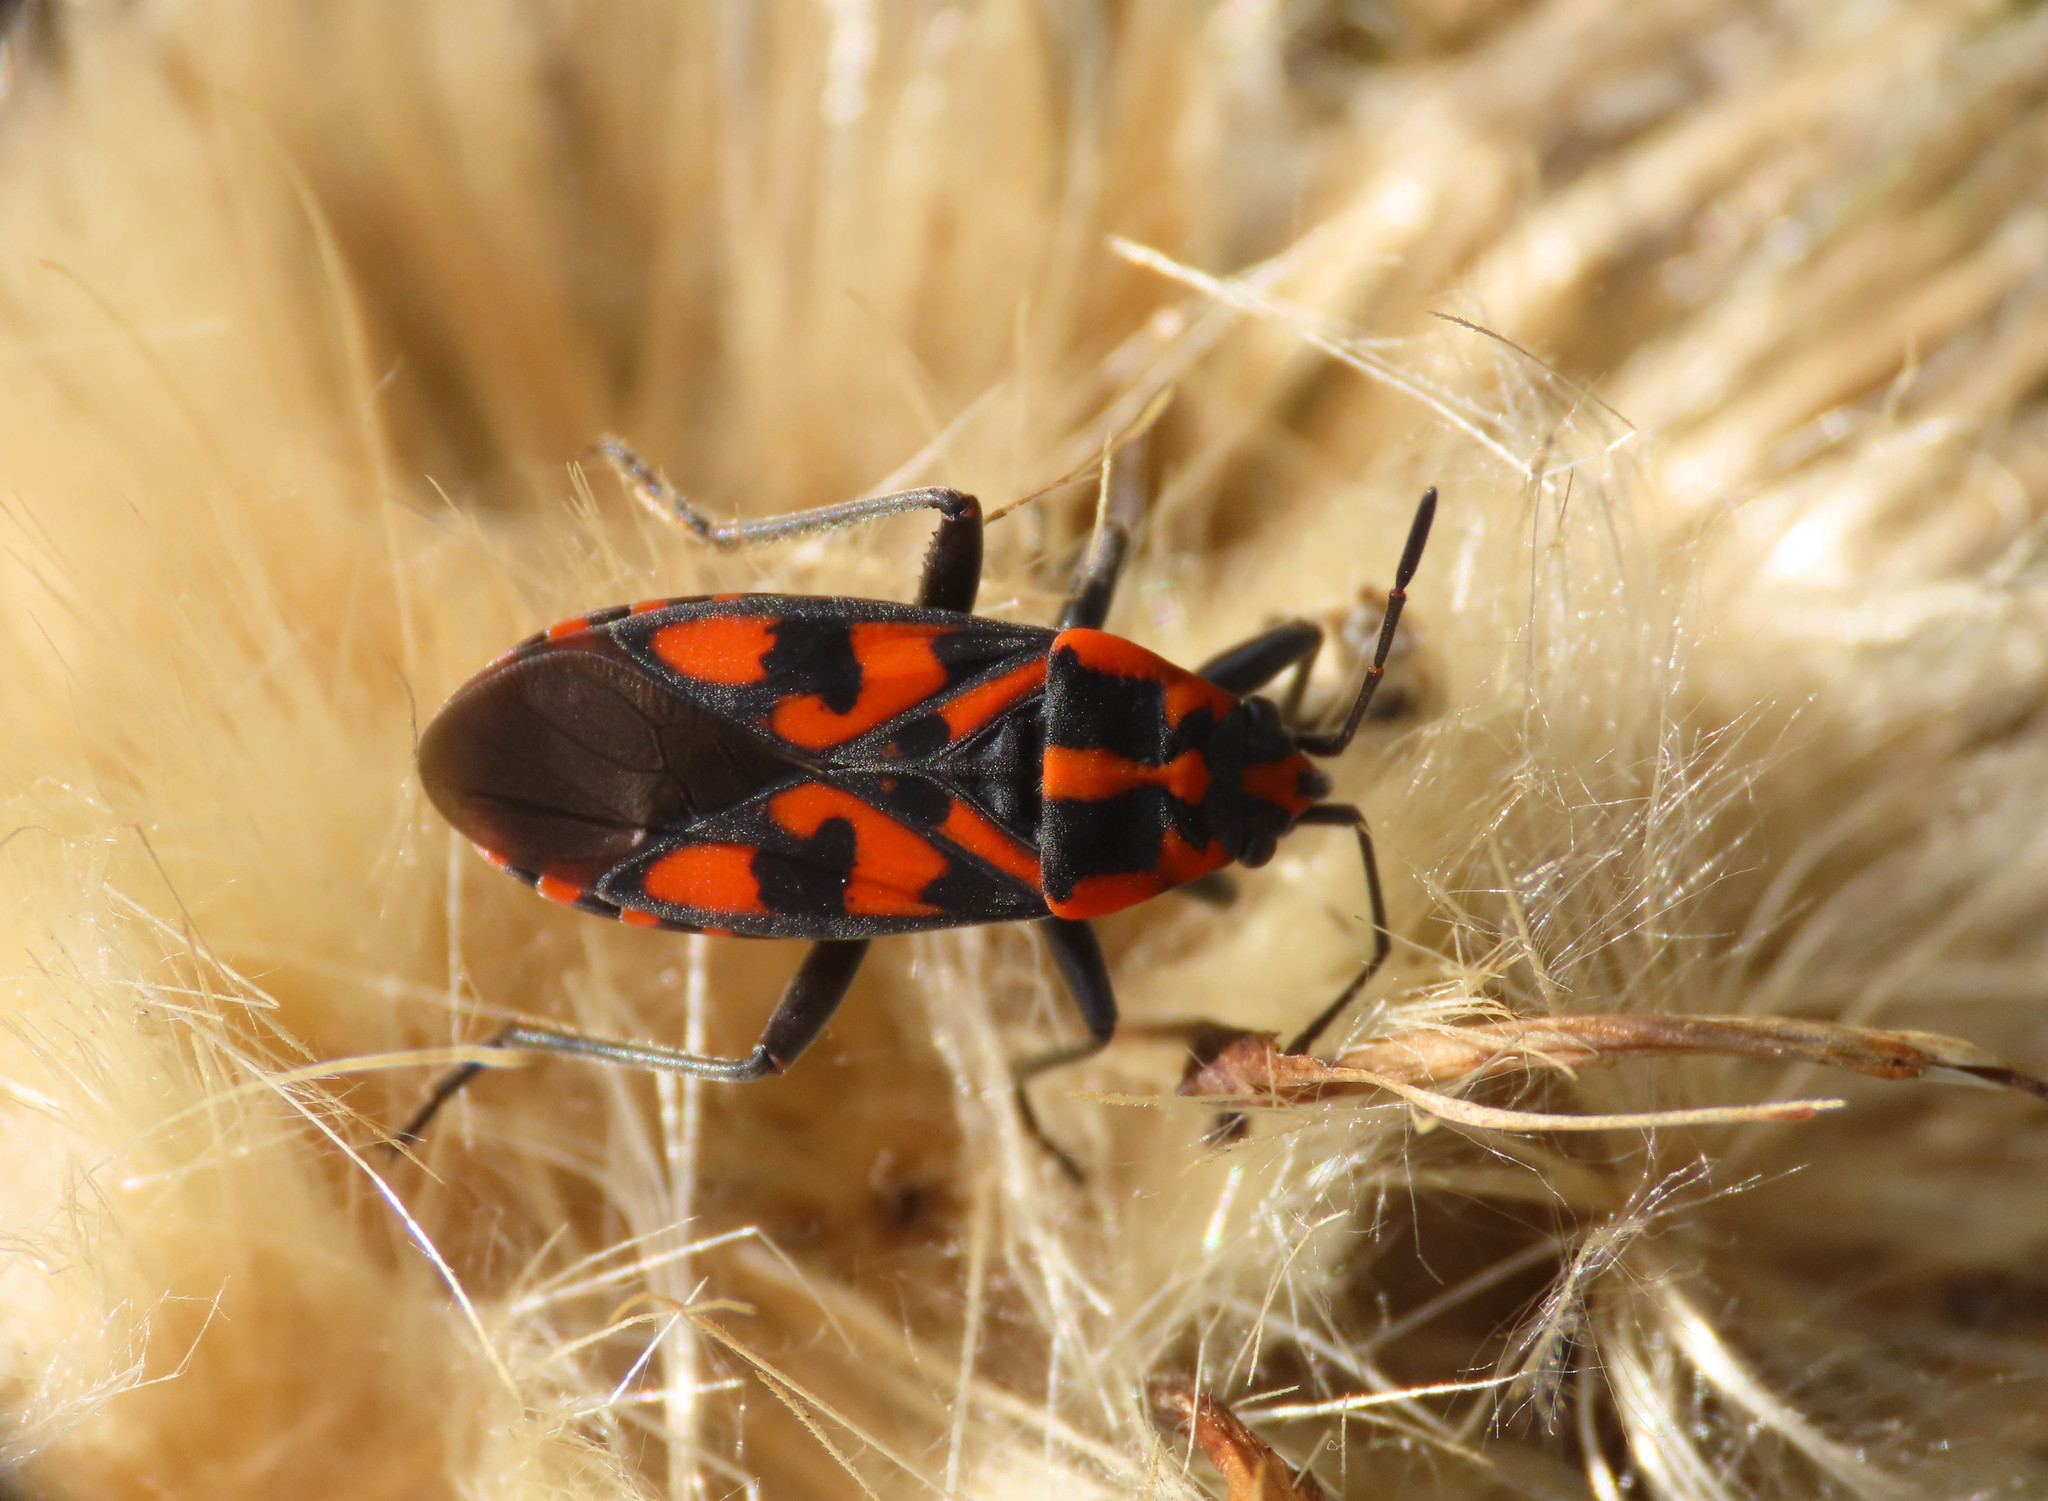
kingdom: Animalia
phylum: Arthropoda
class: Insecta
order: Hemiptera
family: Lygaeidae
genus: Spilostethus
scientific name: Spilostethus saxatilis
